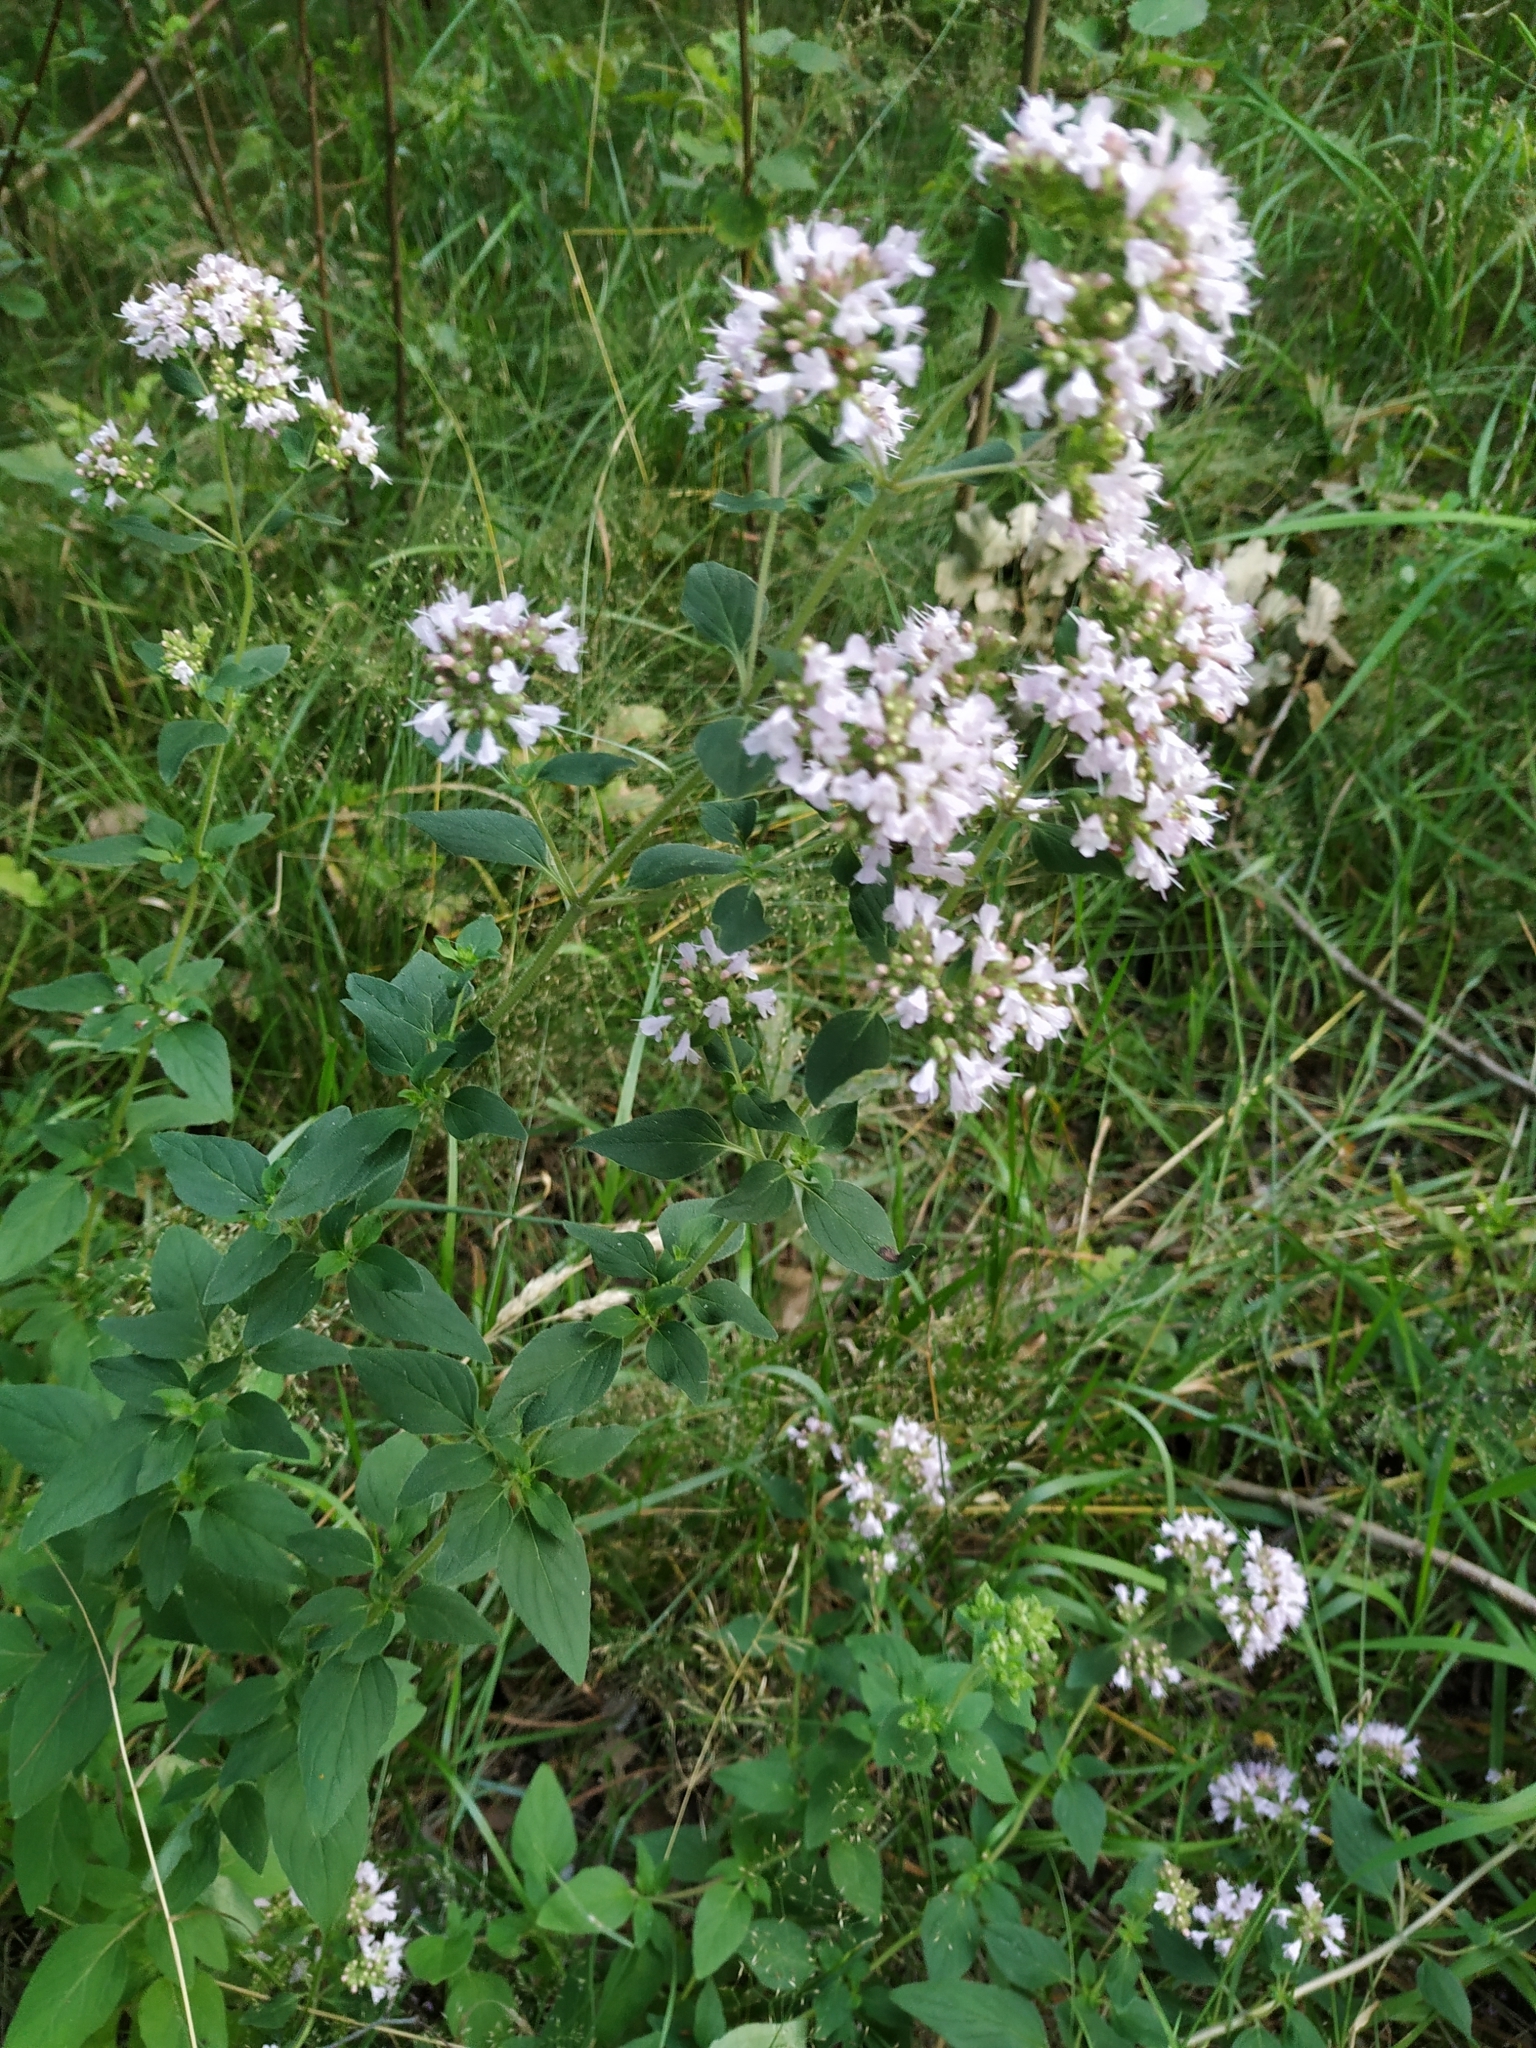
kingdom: Plantae
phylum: Tracheophyta
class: Magnoliopsida
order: Lamiales
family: Lamiaceae
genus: Origanum
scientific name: Origanum vulgare
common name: Wild marjoram
